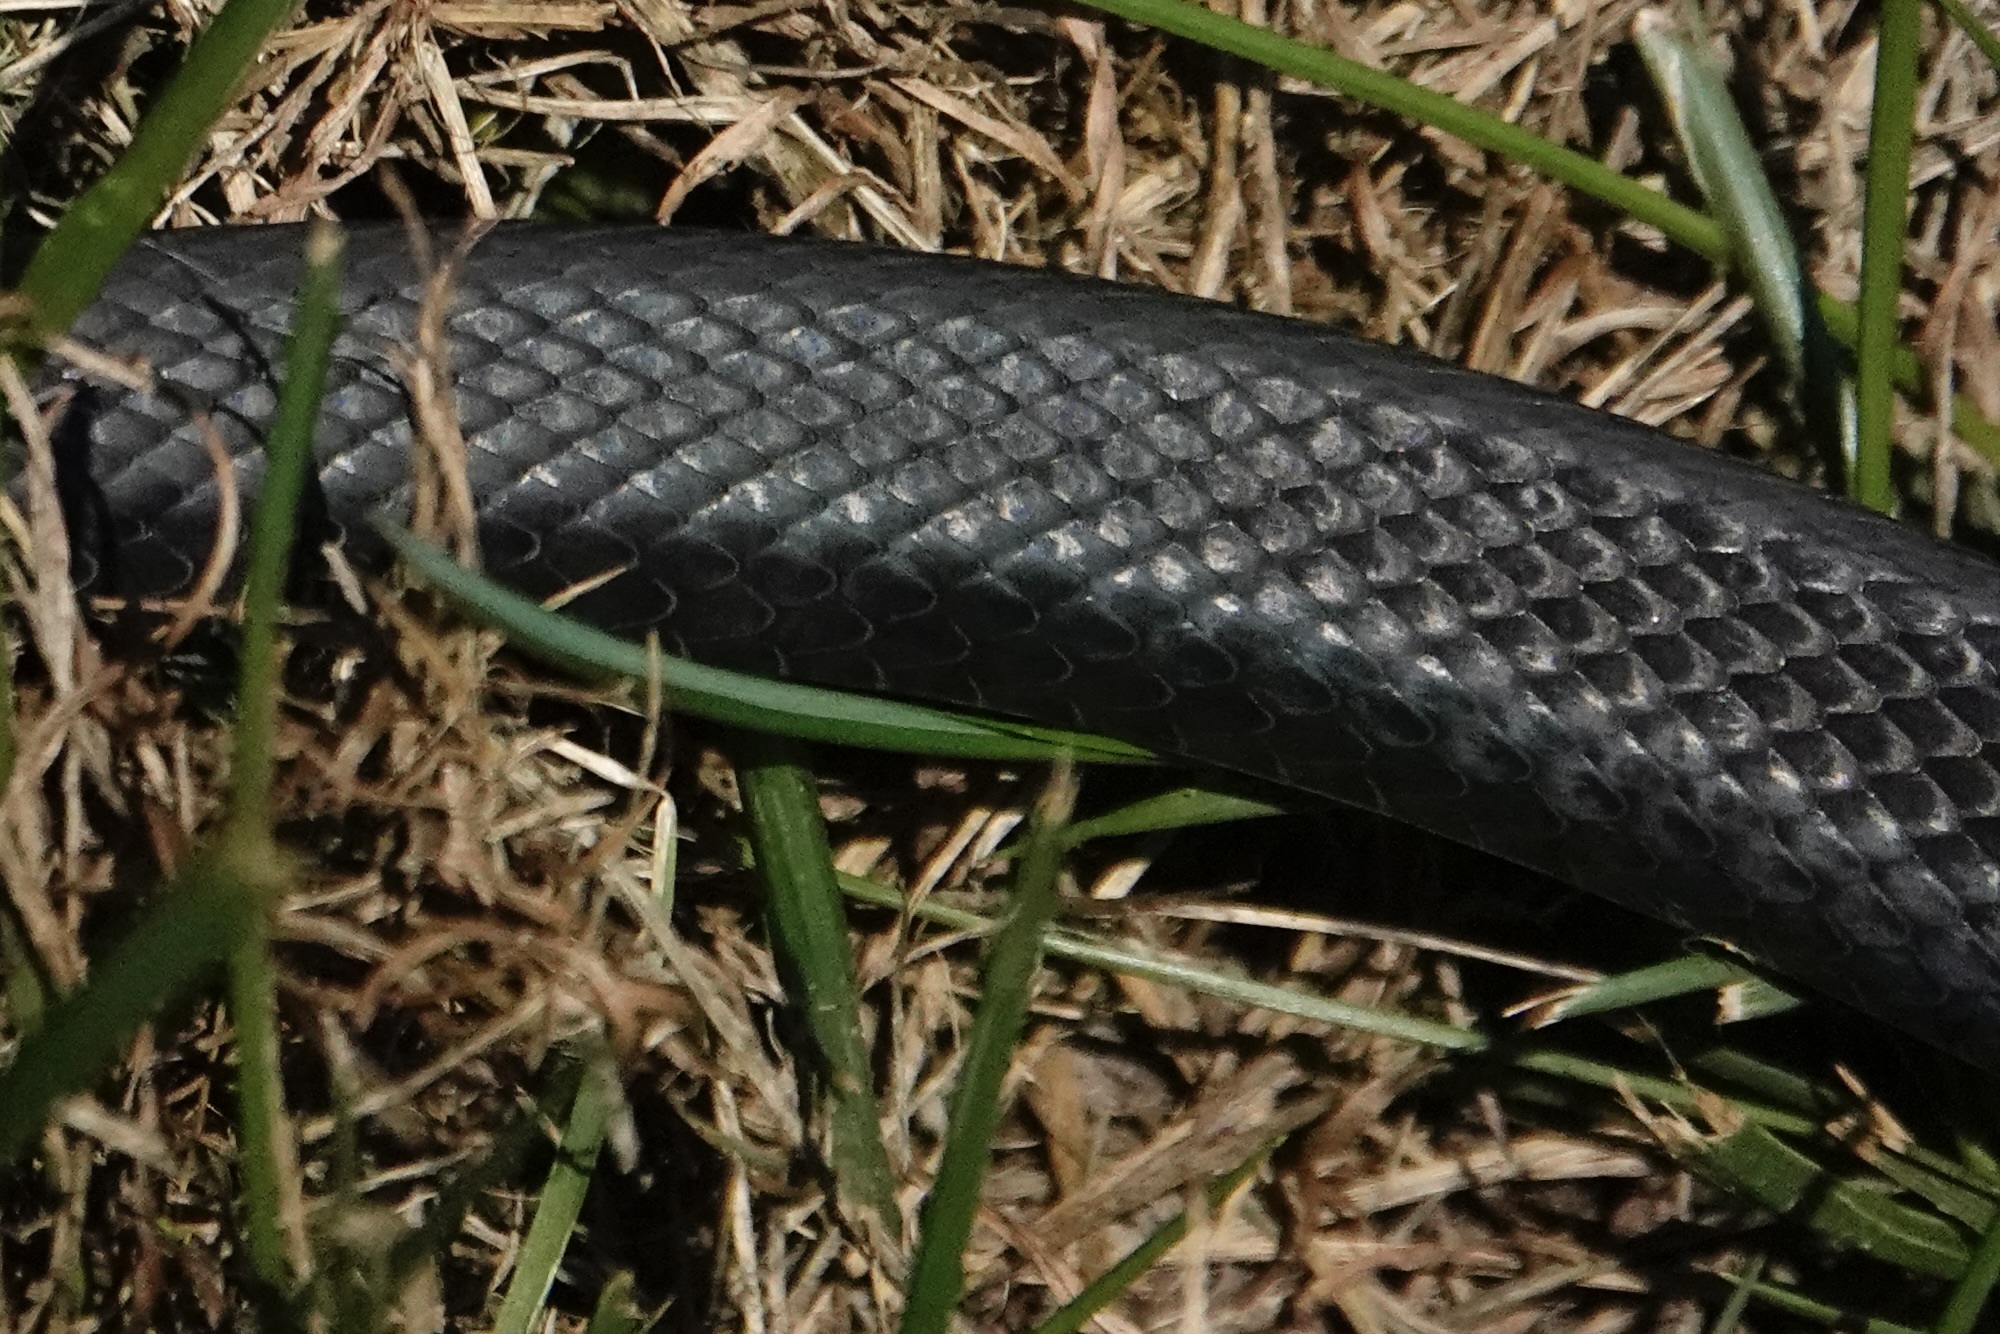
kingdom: Animalia
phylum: Chordata
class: Squamata
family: Colubridae
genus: Coluber
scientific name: Coluber constrictor
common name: Eastern racer
